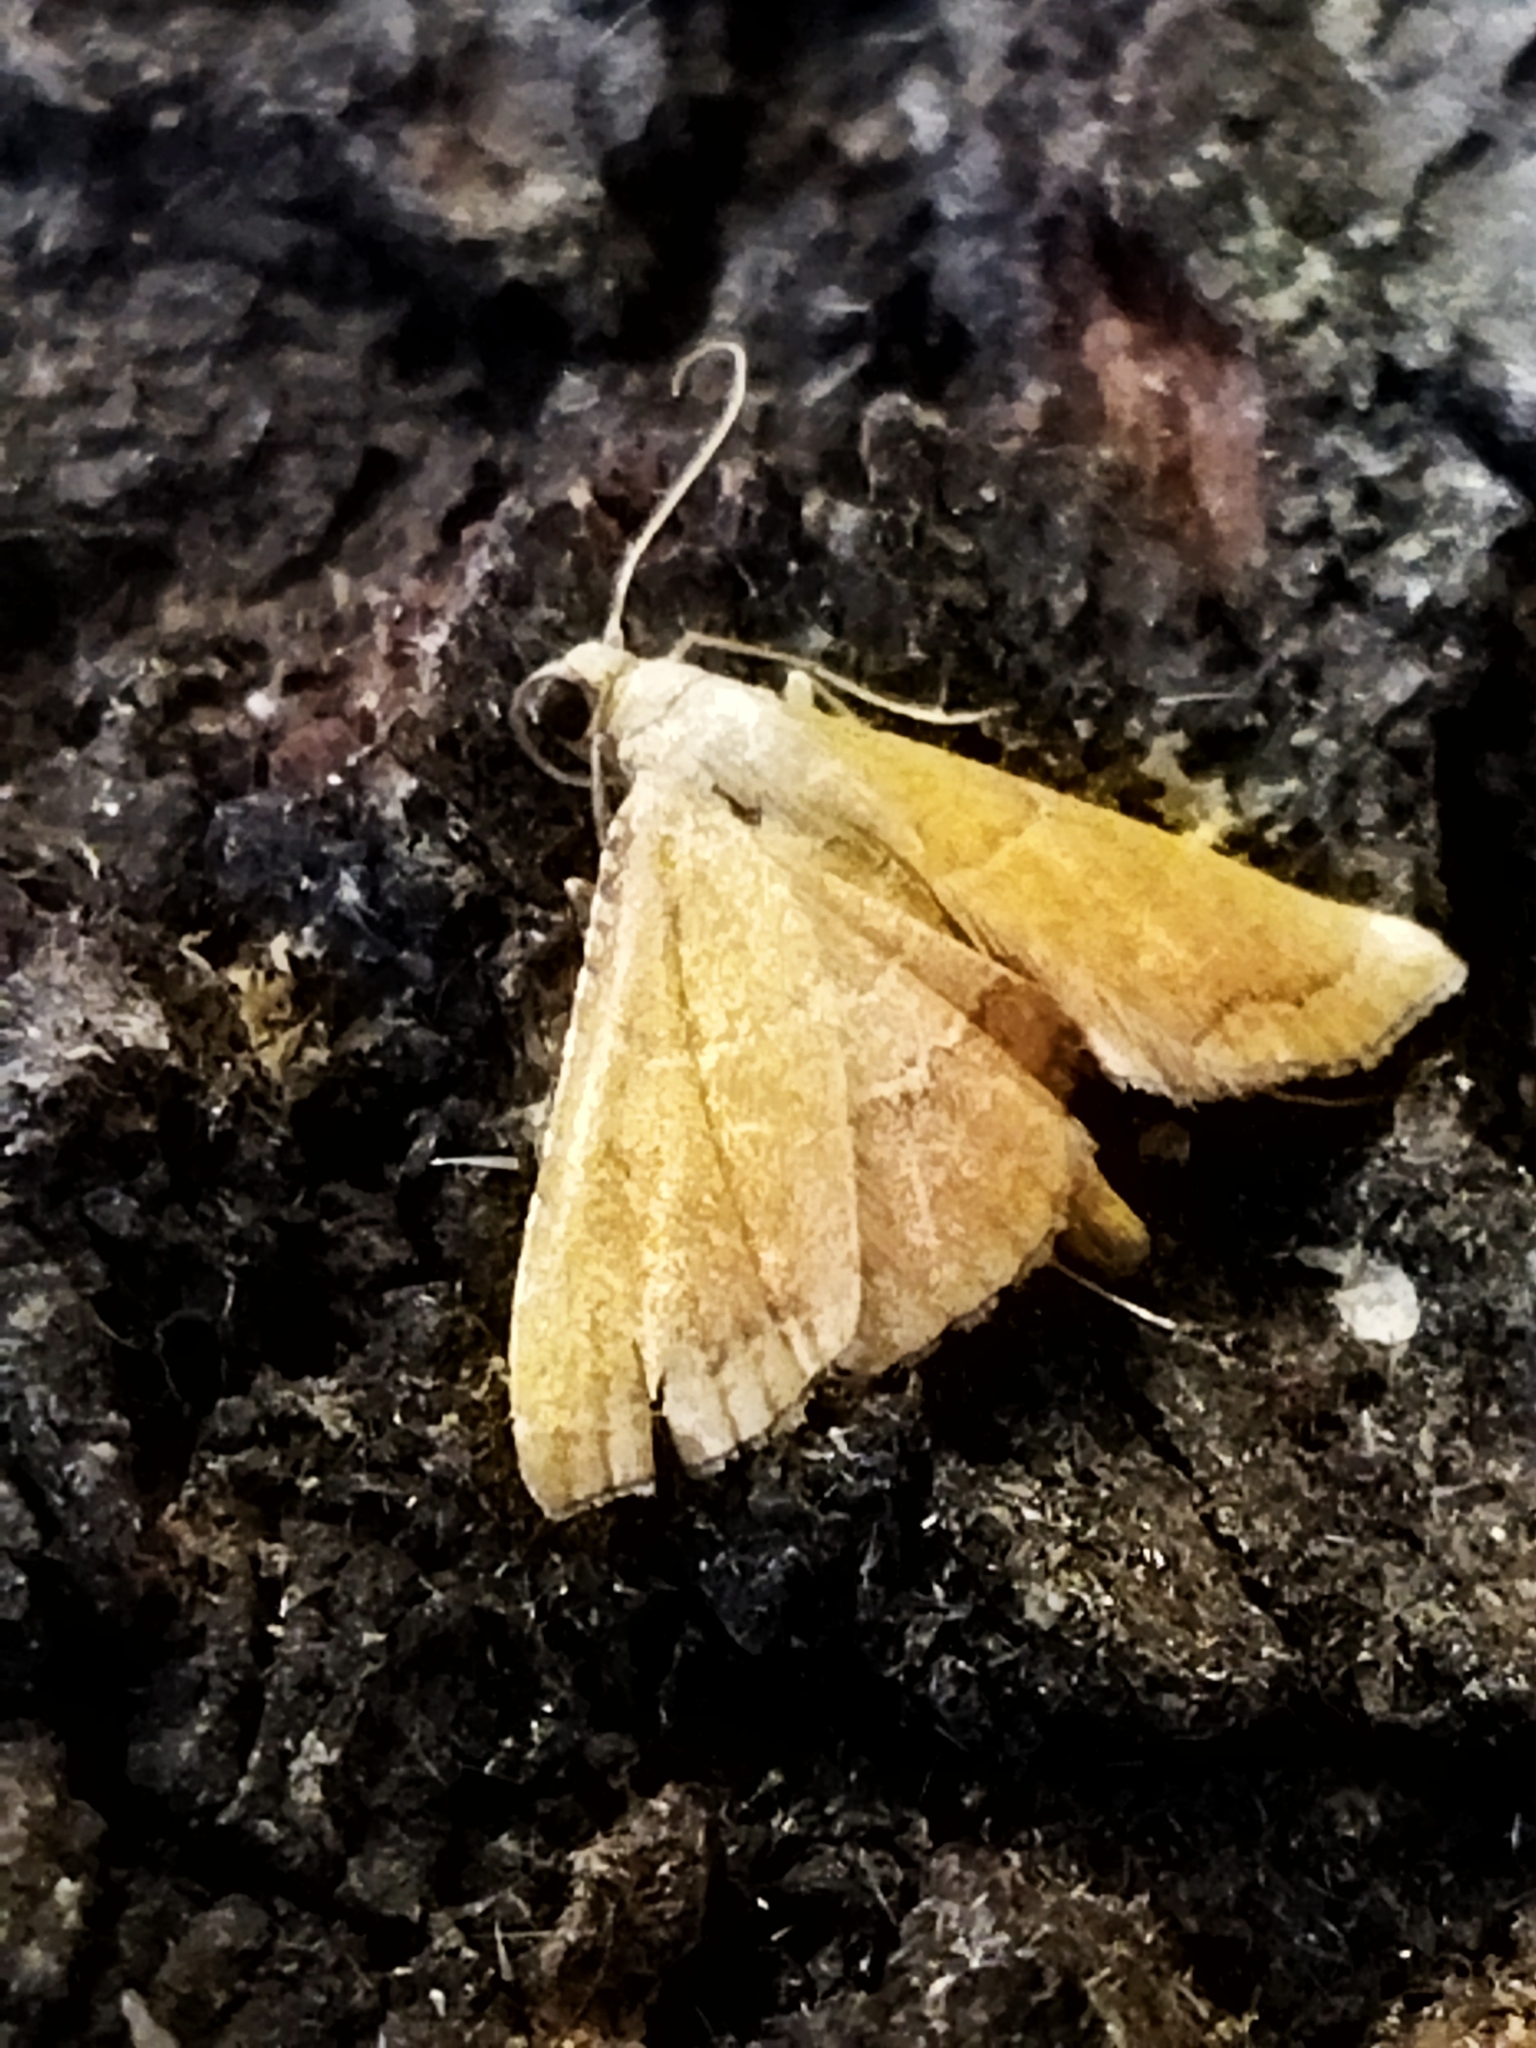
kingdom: Animalia
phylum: Arthropoda
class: Insecta
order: Lepidoptera
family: Pyralidae
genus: Endotricha
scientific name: Endotricha flammealis
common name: Rosy tabby
